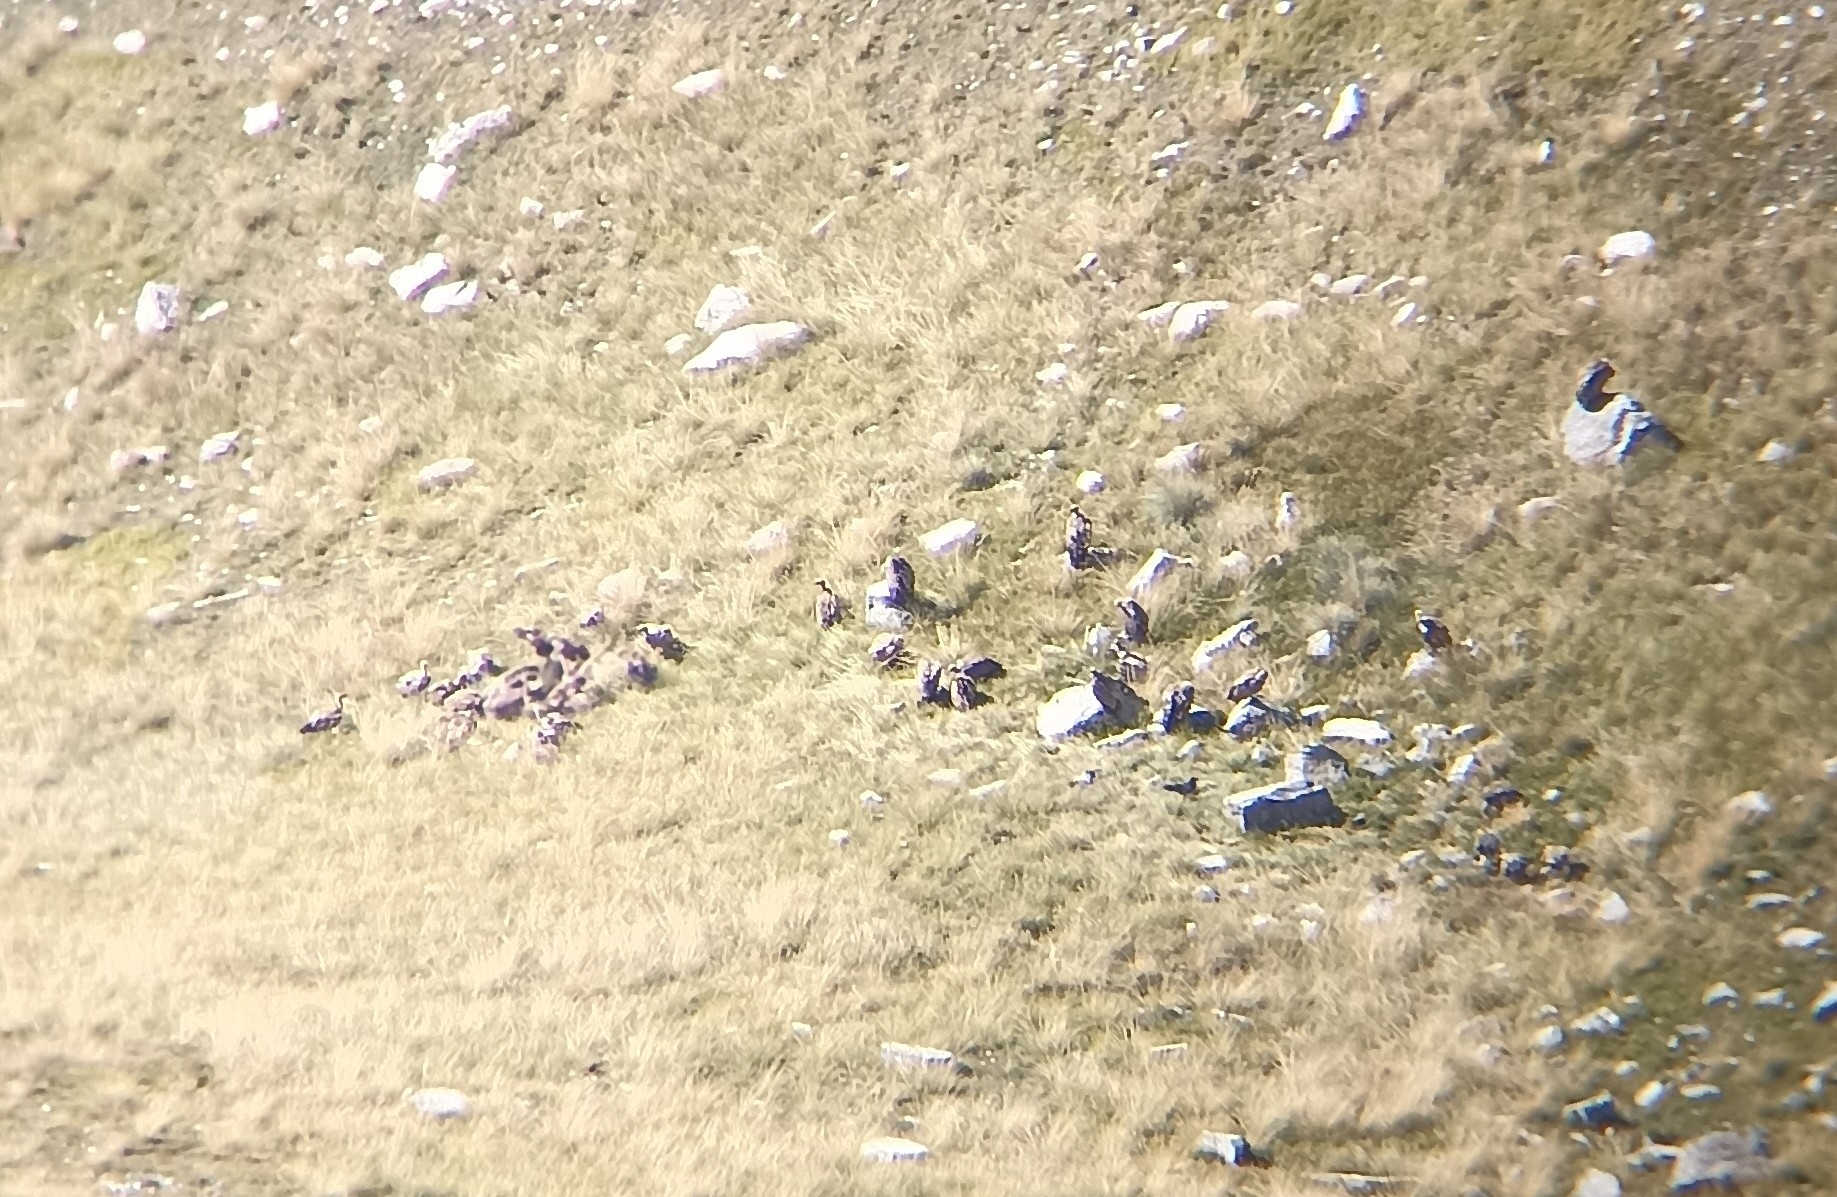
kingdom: Animalia
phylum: Chordata
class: Aves
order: Accipitriformes
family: Accipitridae
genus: Gyps
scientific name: Gyps fulvus
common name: Griffon vulture
